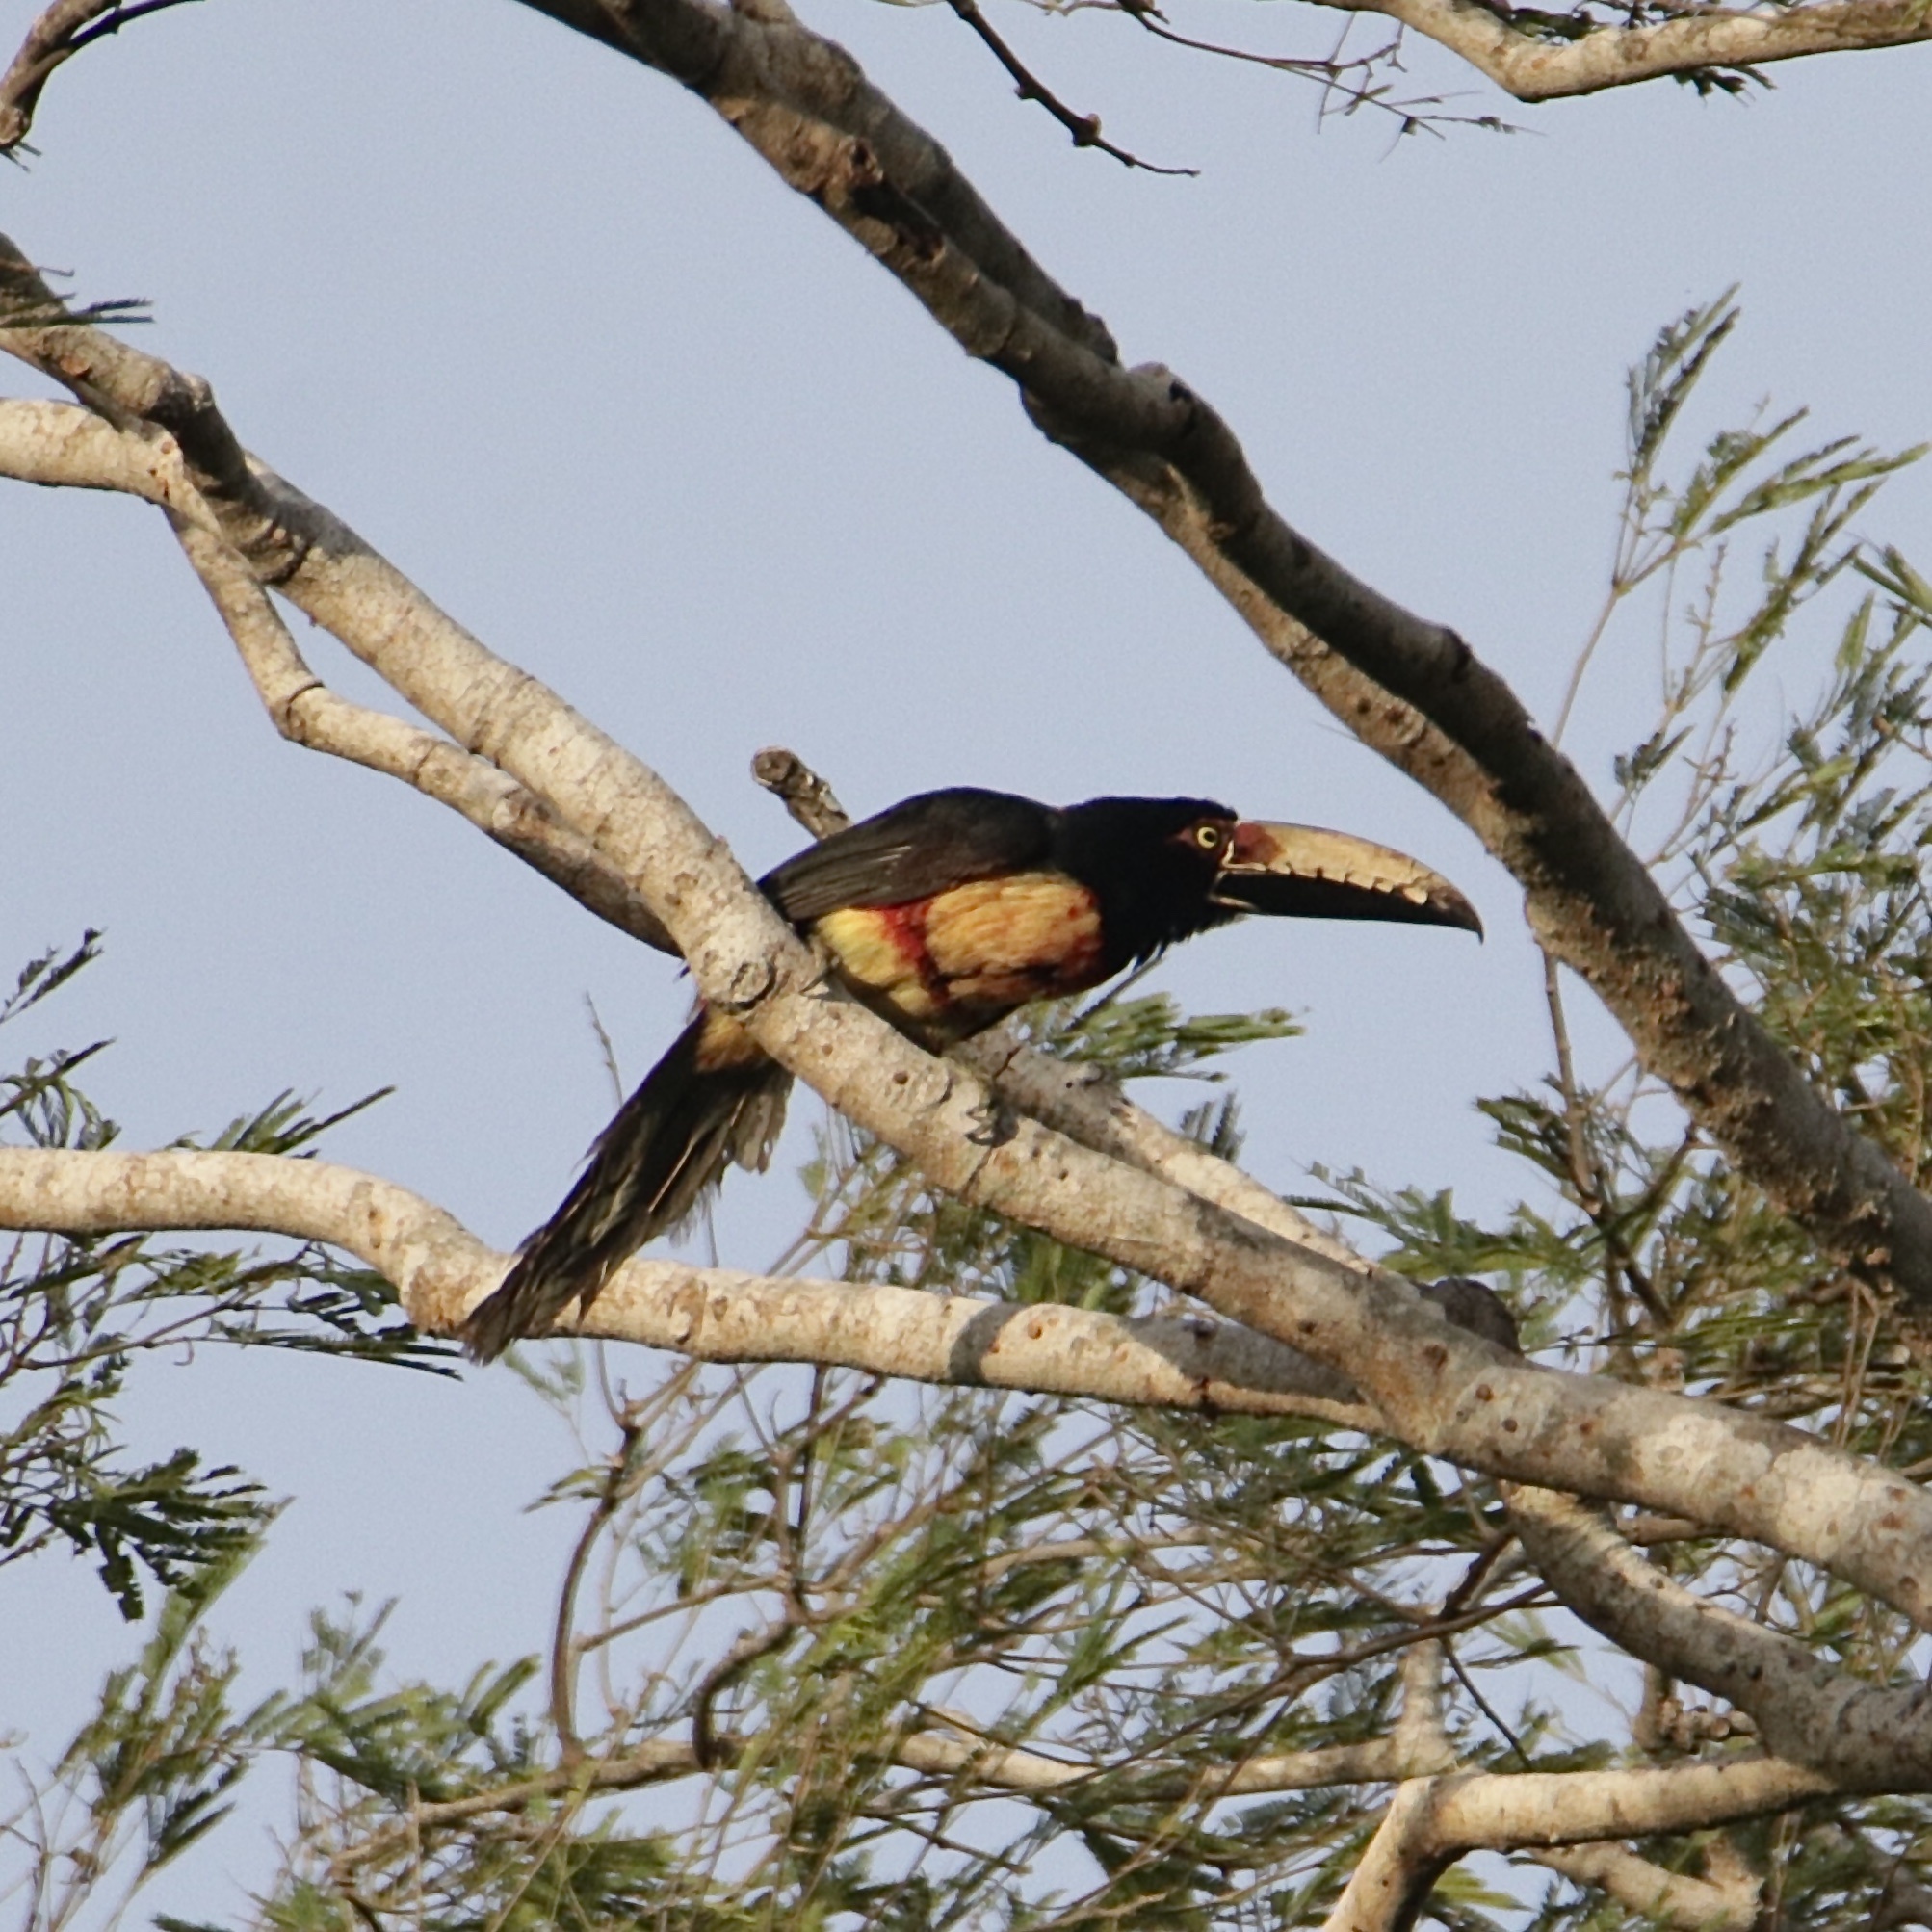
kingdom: Animalia
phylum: Chordata
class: Aves
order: Piciformes
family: Ramphastidae
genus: Pteroglossus
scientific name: Pteroglossus torquatus
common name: Collared aracari
